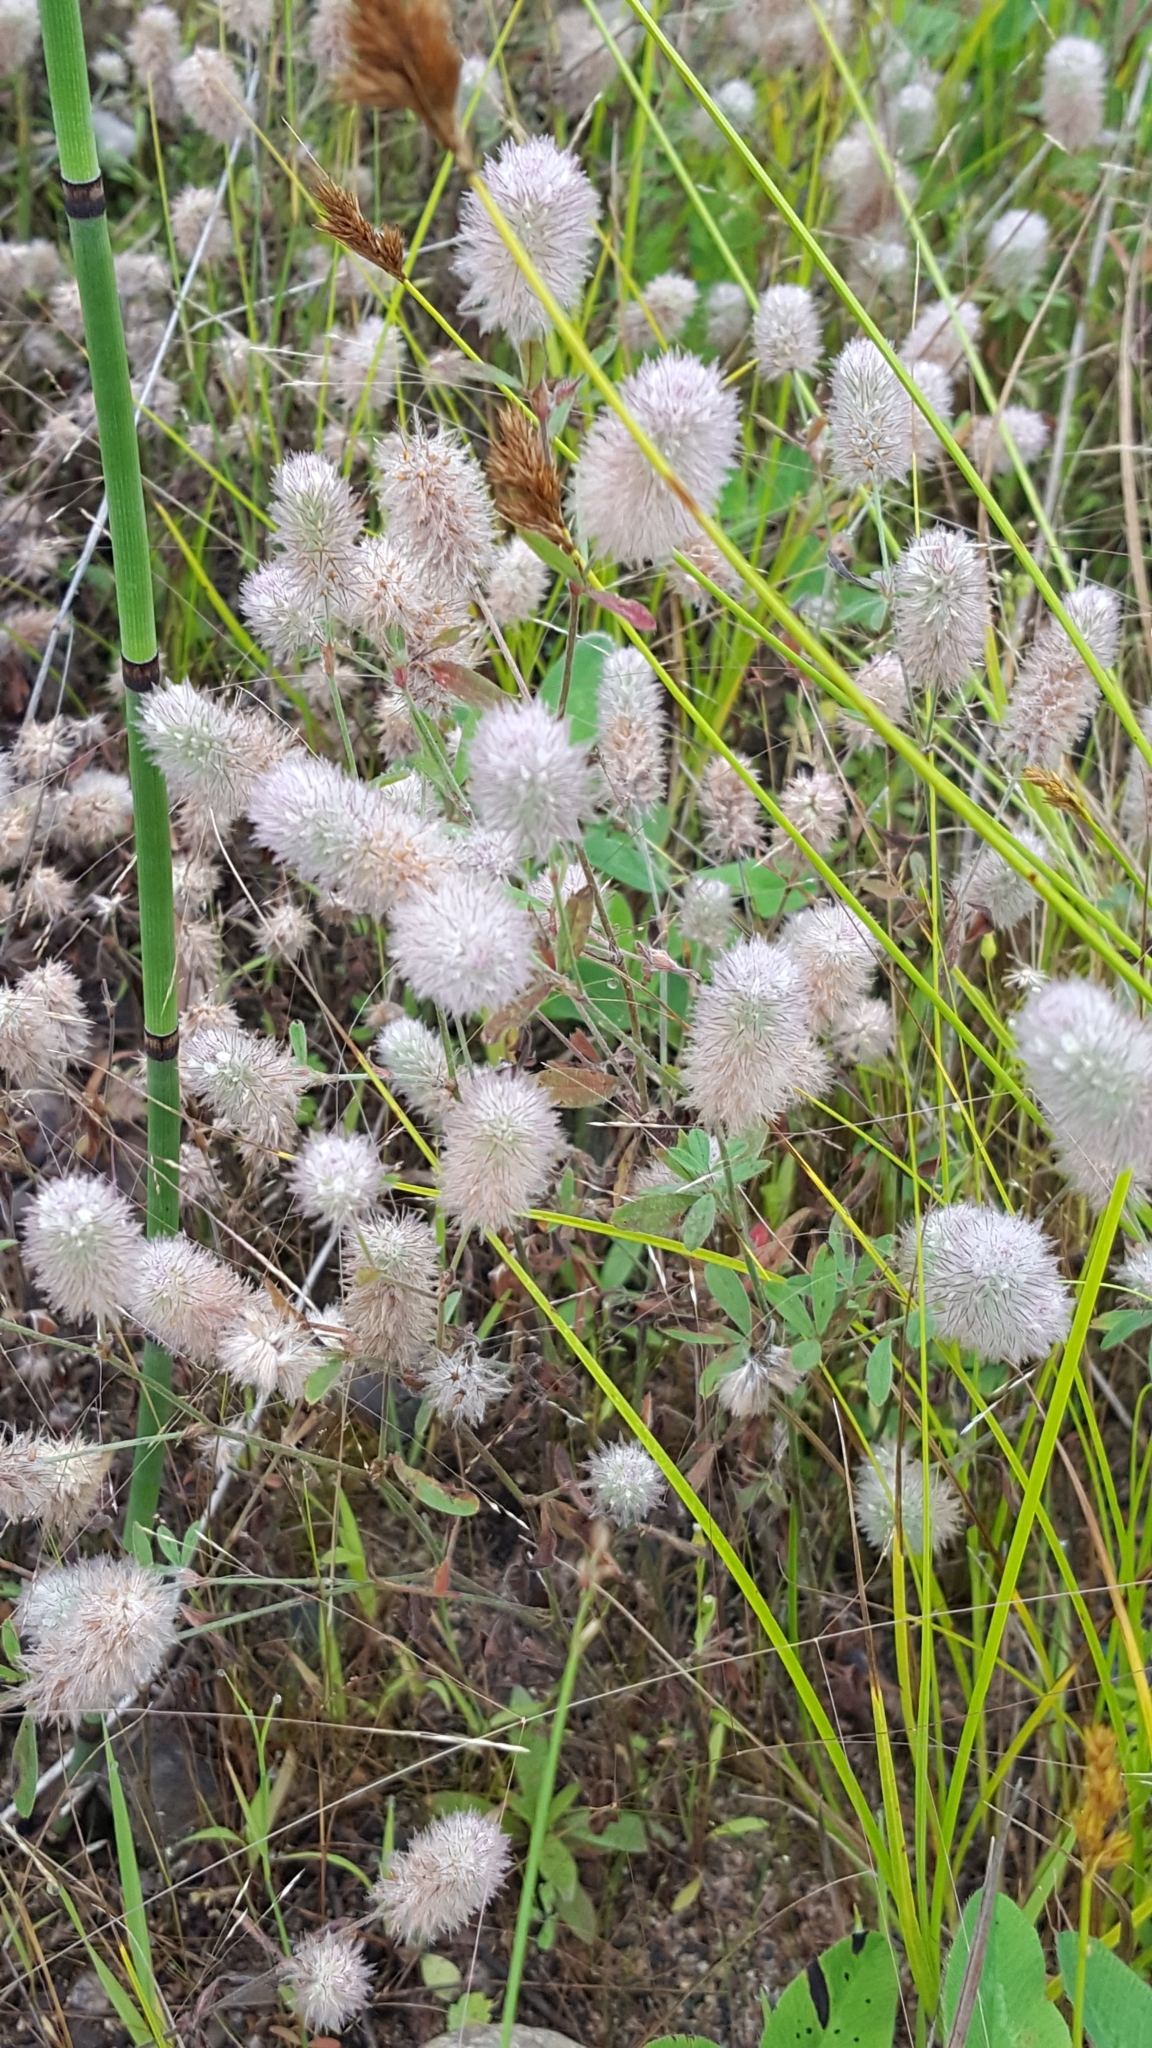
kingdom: Plantae
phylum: Tracheophyta
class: Magnoliopsida
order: Fabales
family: Fabaceae
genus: Trifolium
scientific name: Trifolium arvense
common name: Hare's-foot clover
